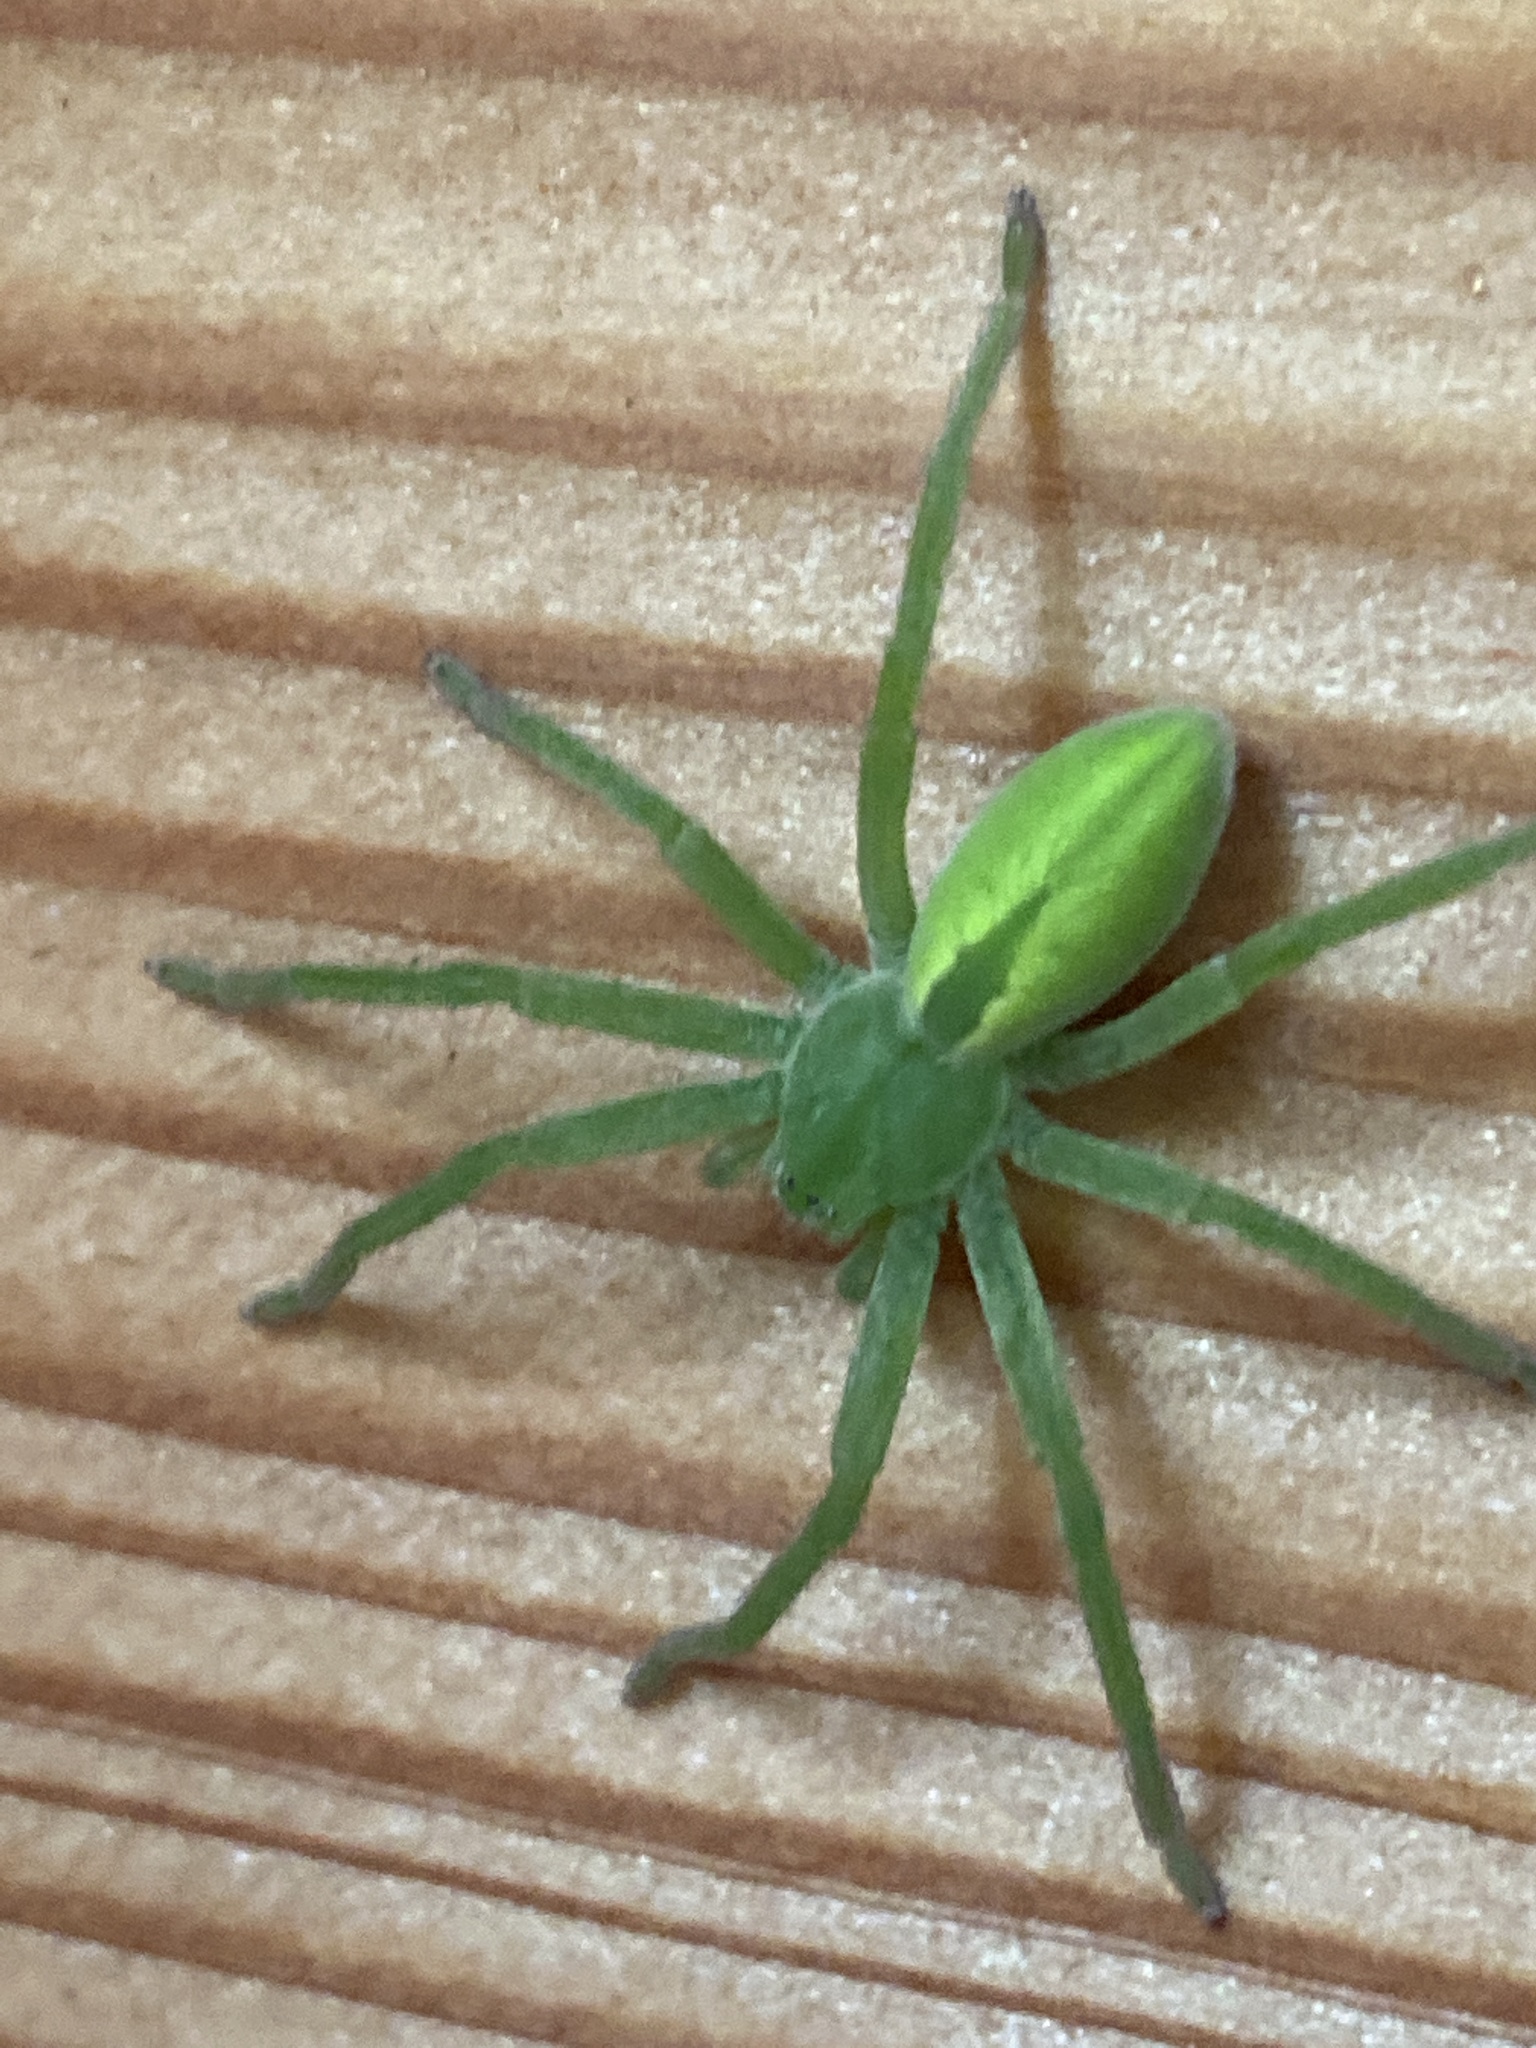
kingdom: Animalia
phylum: Arthropoda
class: Arachnida
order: Araneae
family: Sparassidae
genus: Micrommata
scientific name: Micrommata virescens
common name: Green spider
